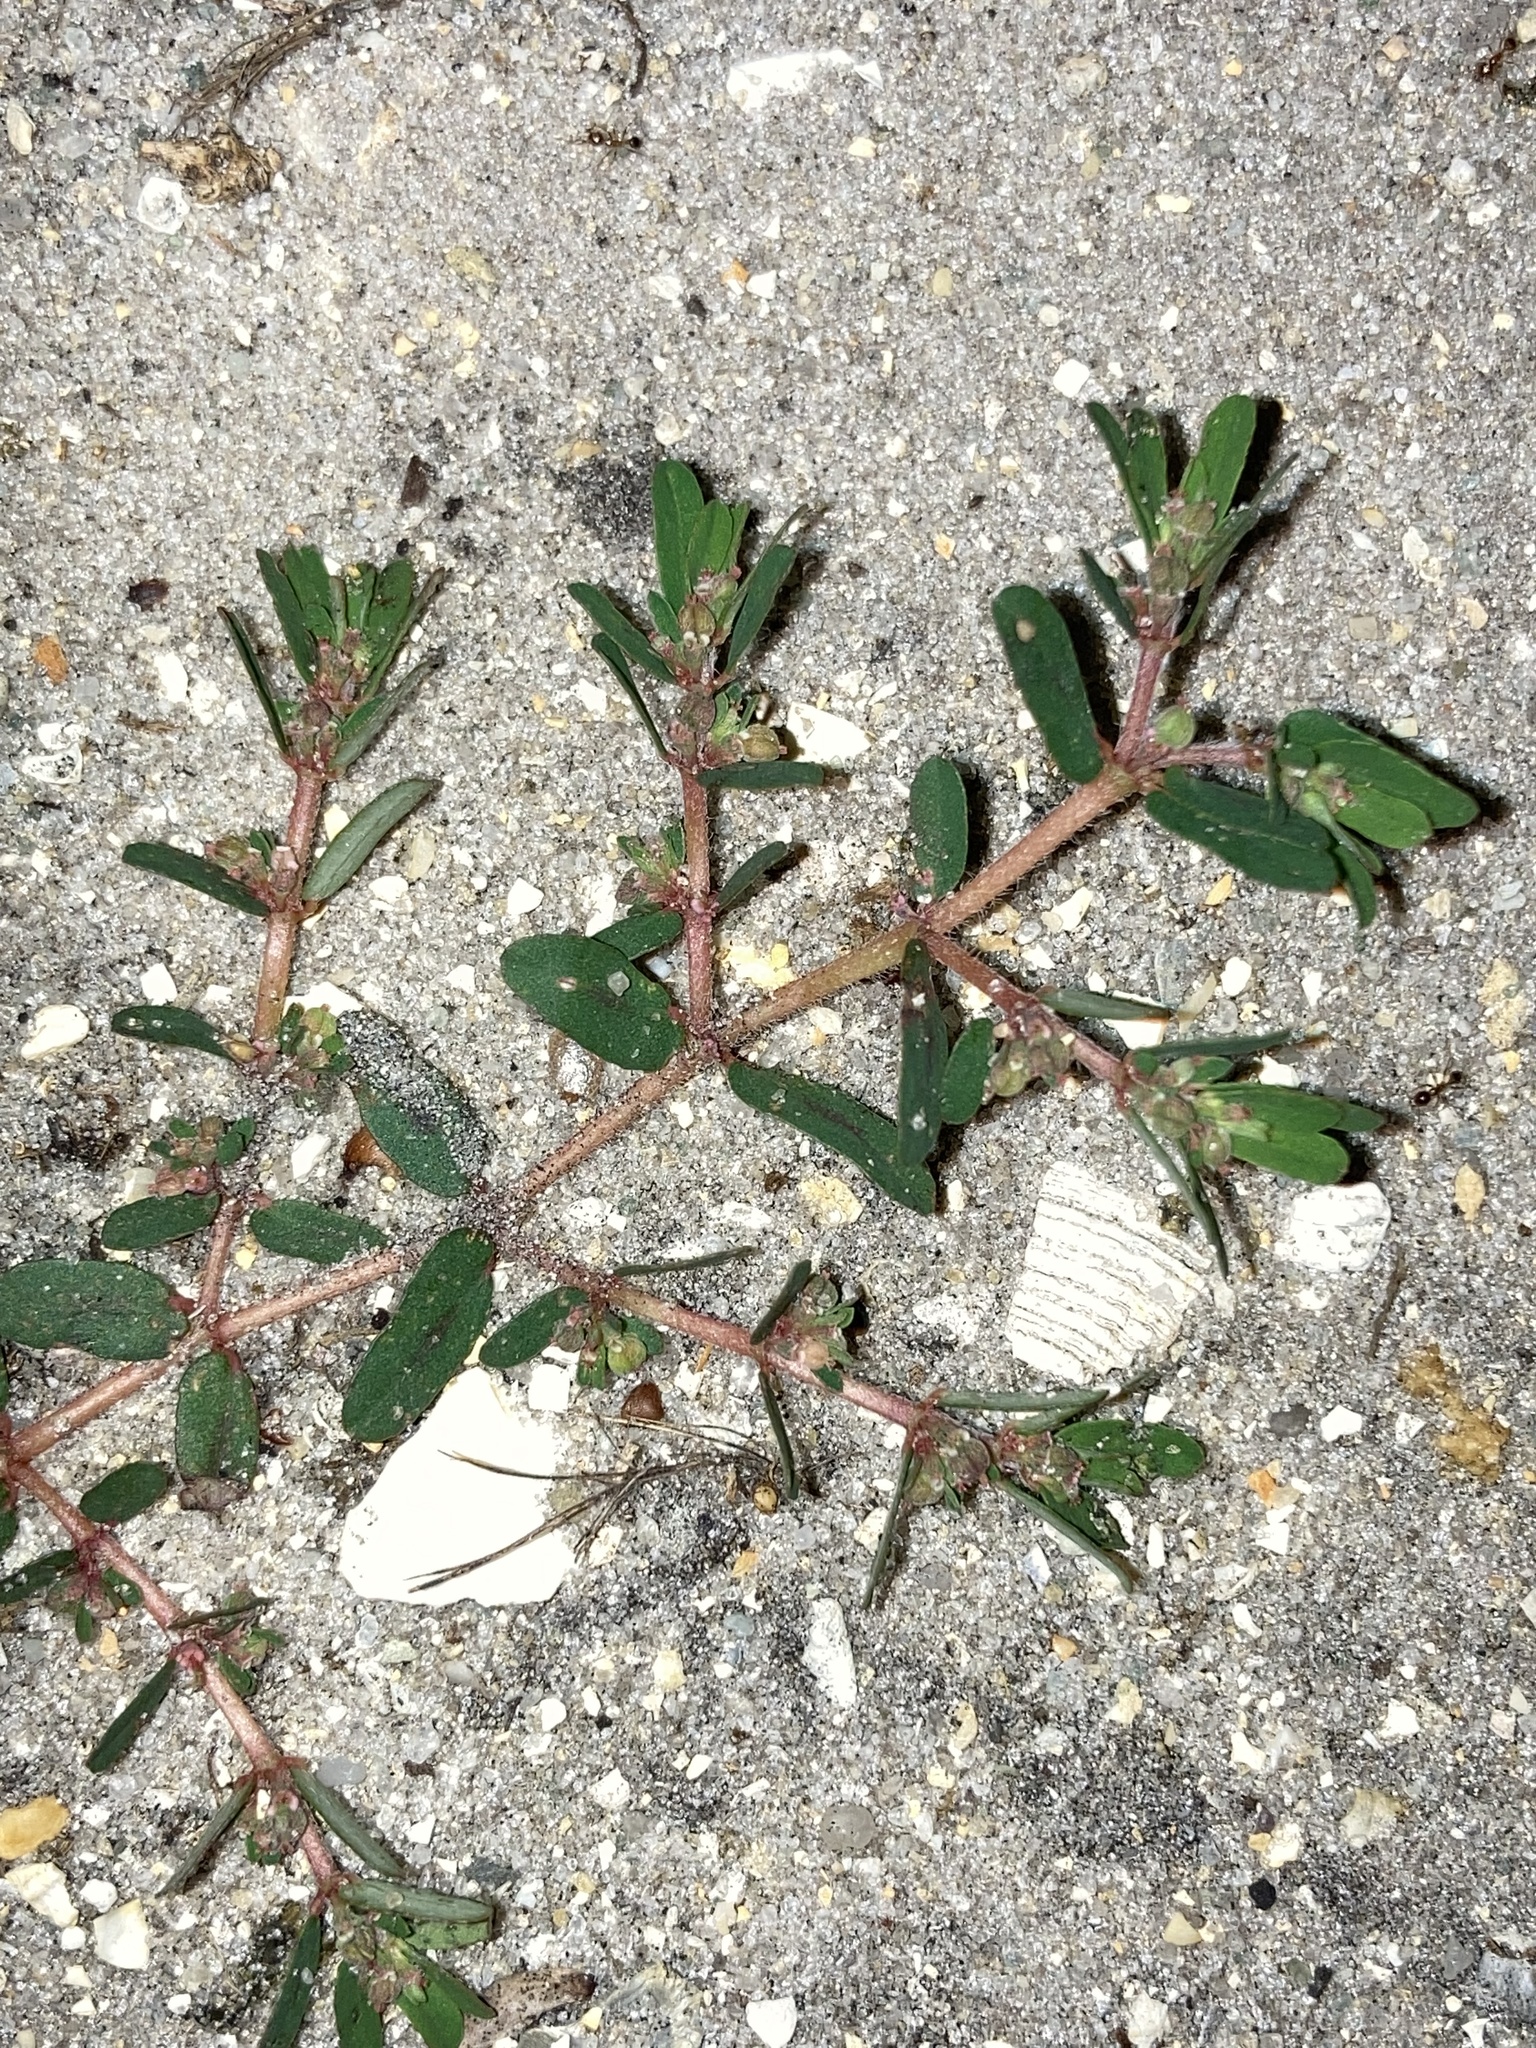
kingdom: Plantae
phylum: Tracheophyta
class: Magnoliopsida
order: Malpighiales
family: Euphorbiaceae
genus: Euphorbia
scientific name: Euphorbia maculata
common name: Spotted spurge
